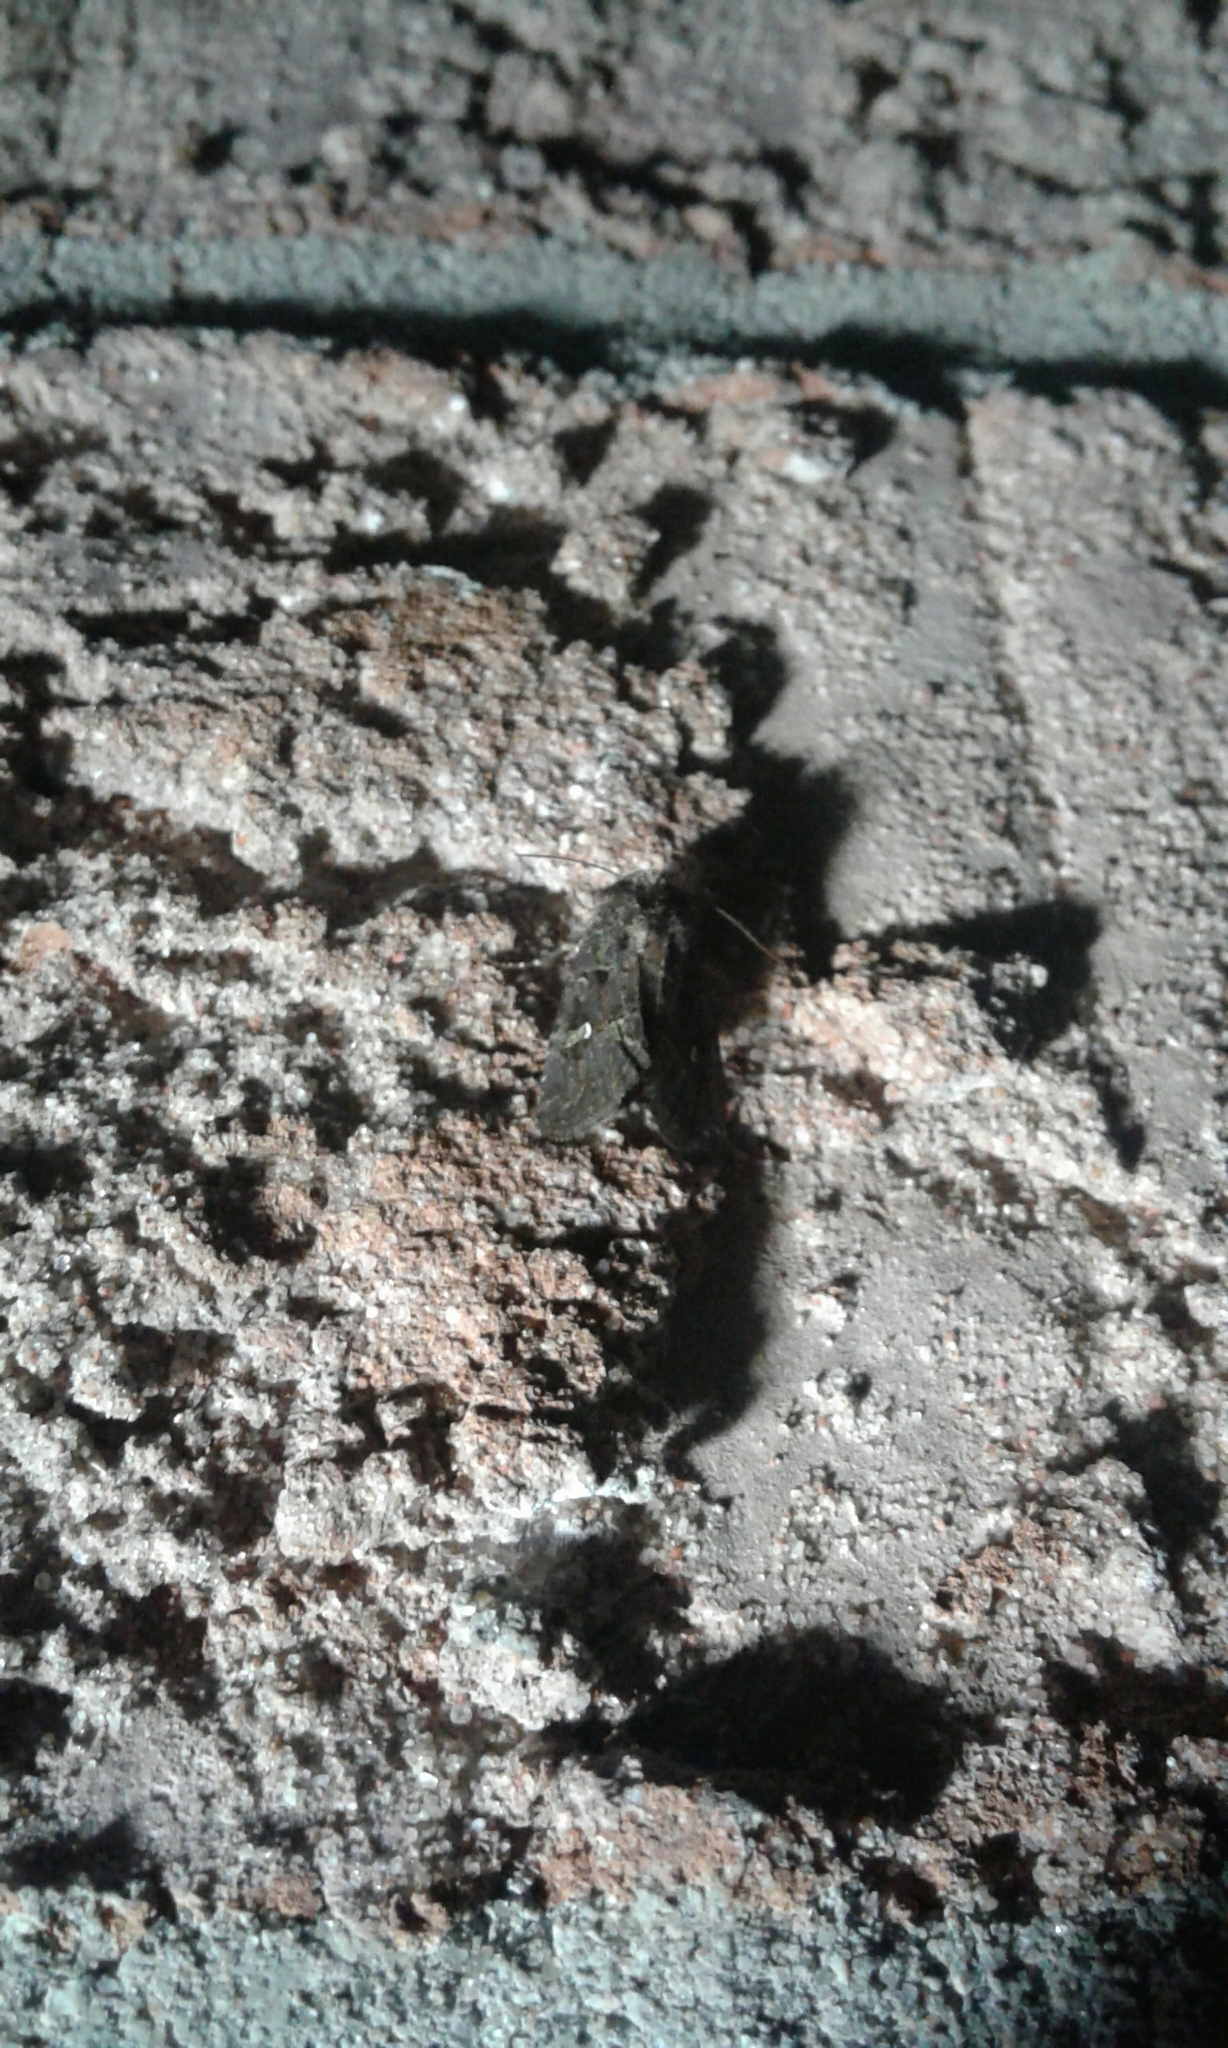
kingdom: Animalia
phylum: Arthropoda
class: Insecta
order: Lepidoptera
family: Noctuidae
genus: Lacinipolia
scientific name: Lacinipolia renigera
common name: Kidney-spotted minor
